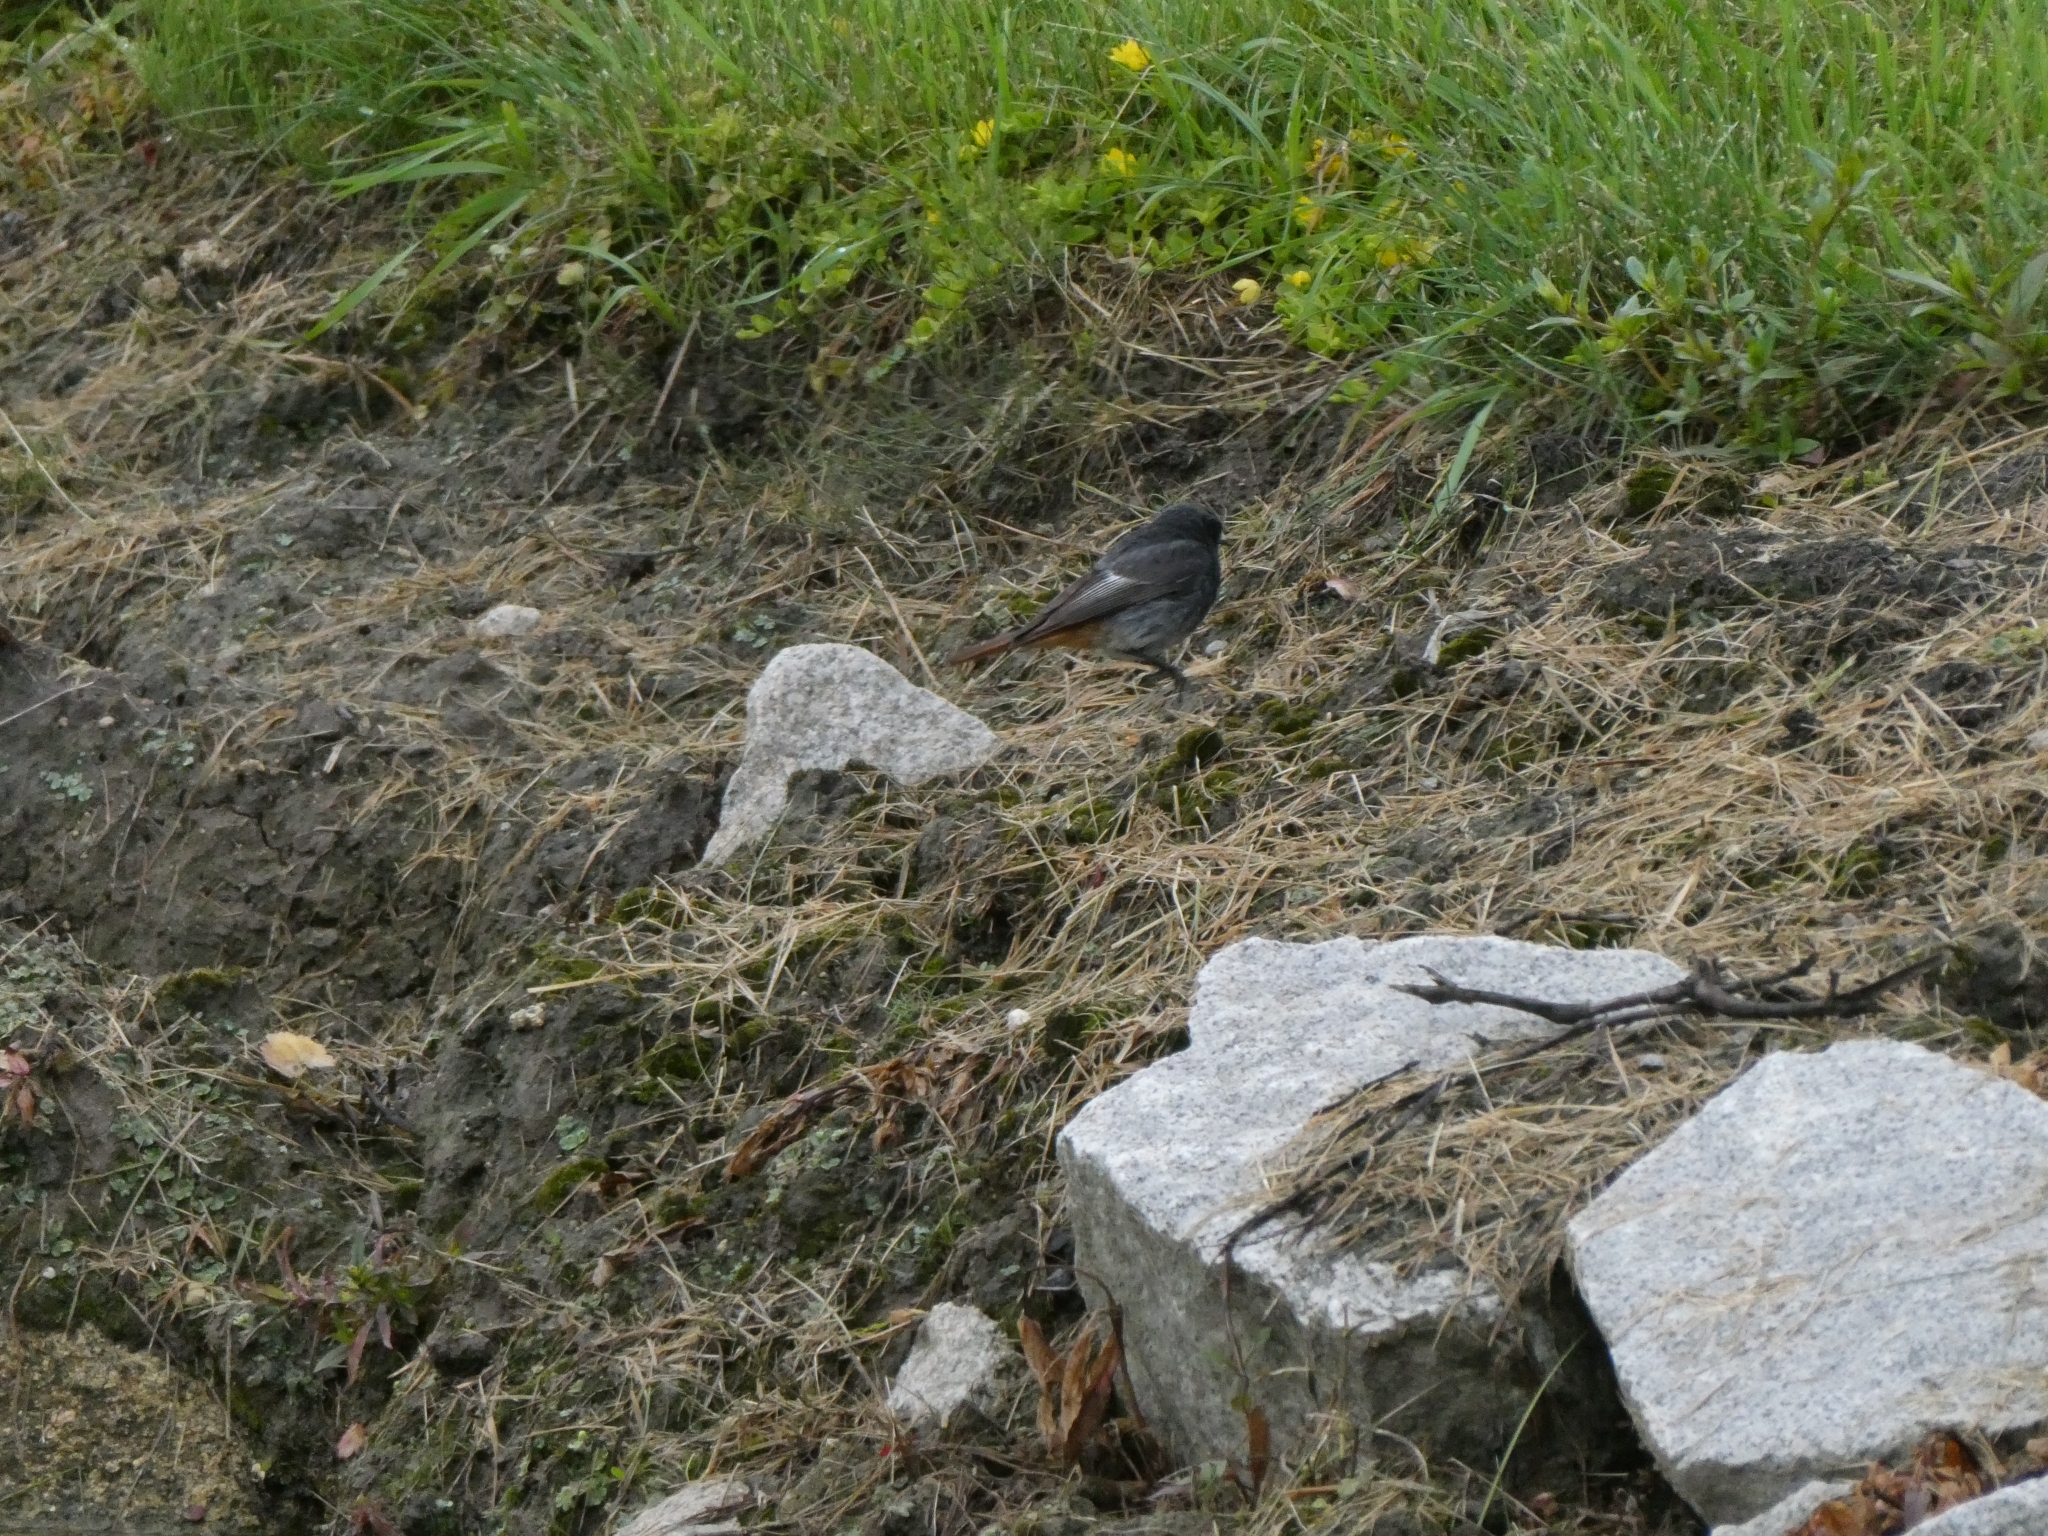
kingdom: Animalia
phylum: Chordata
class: Aves
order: Passeriformes
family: Muscicapidae
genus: Phoenicurus
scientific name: Phoenicurus ochruros
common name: Black redstart
